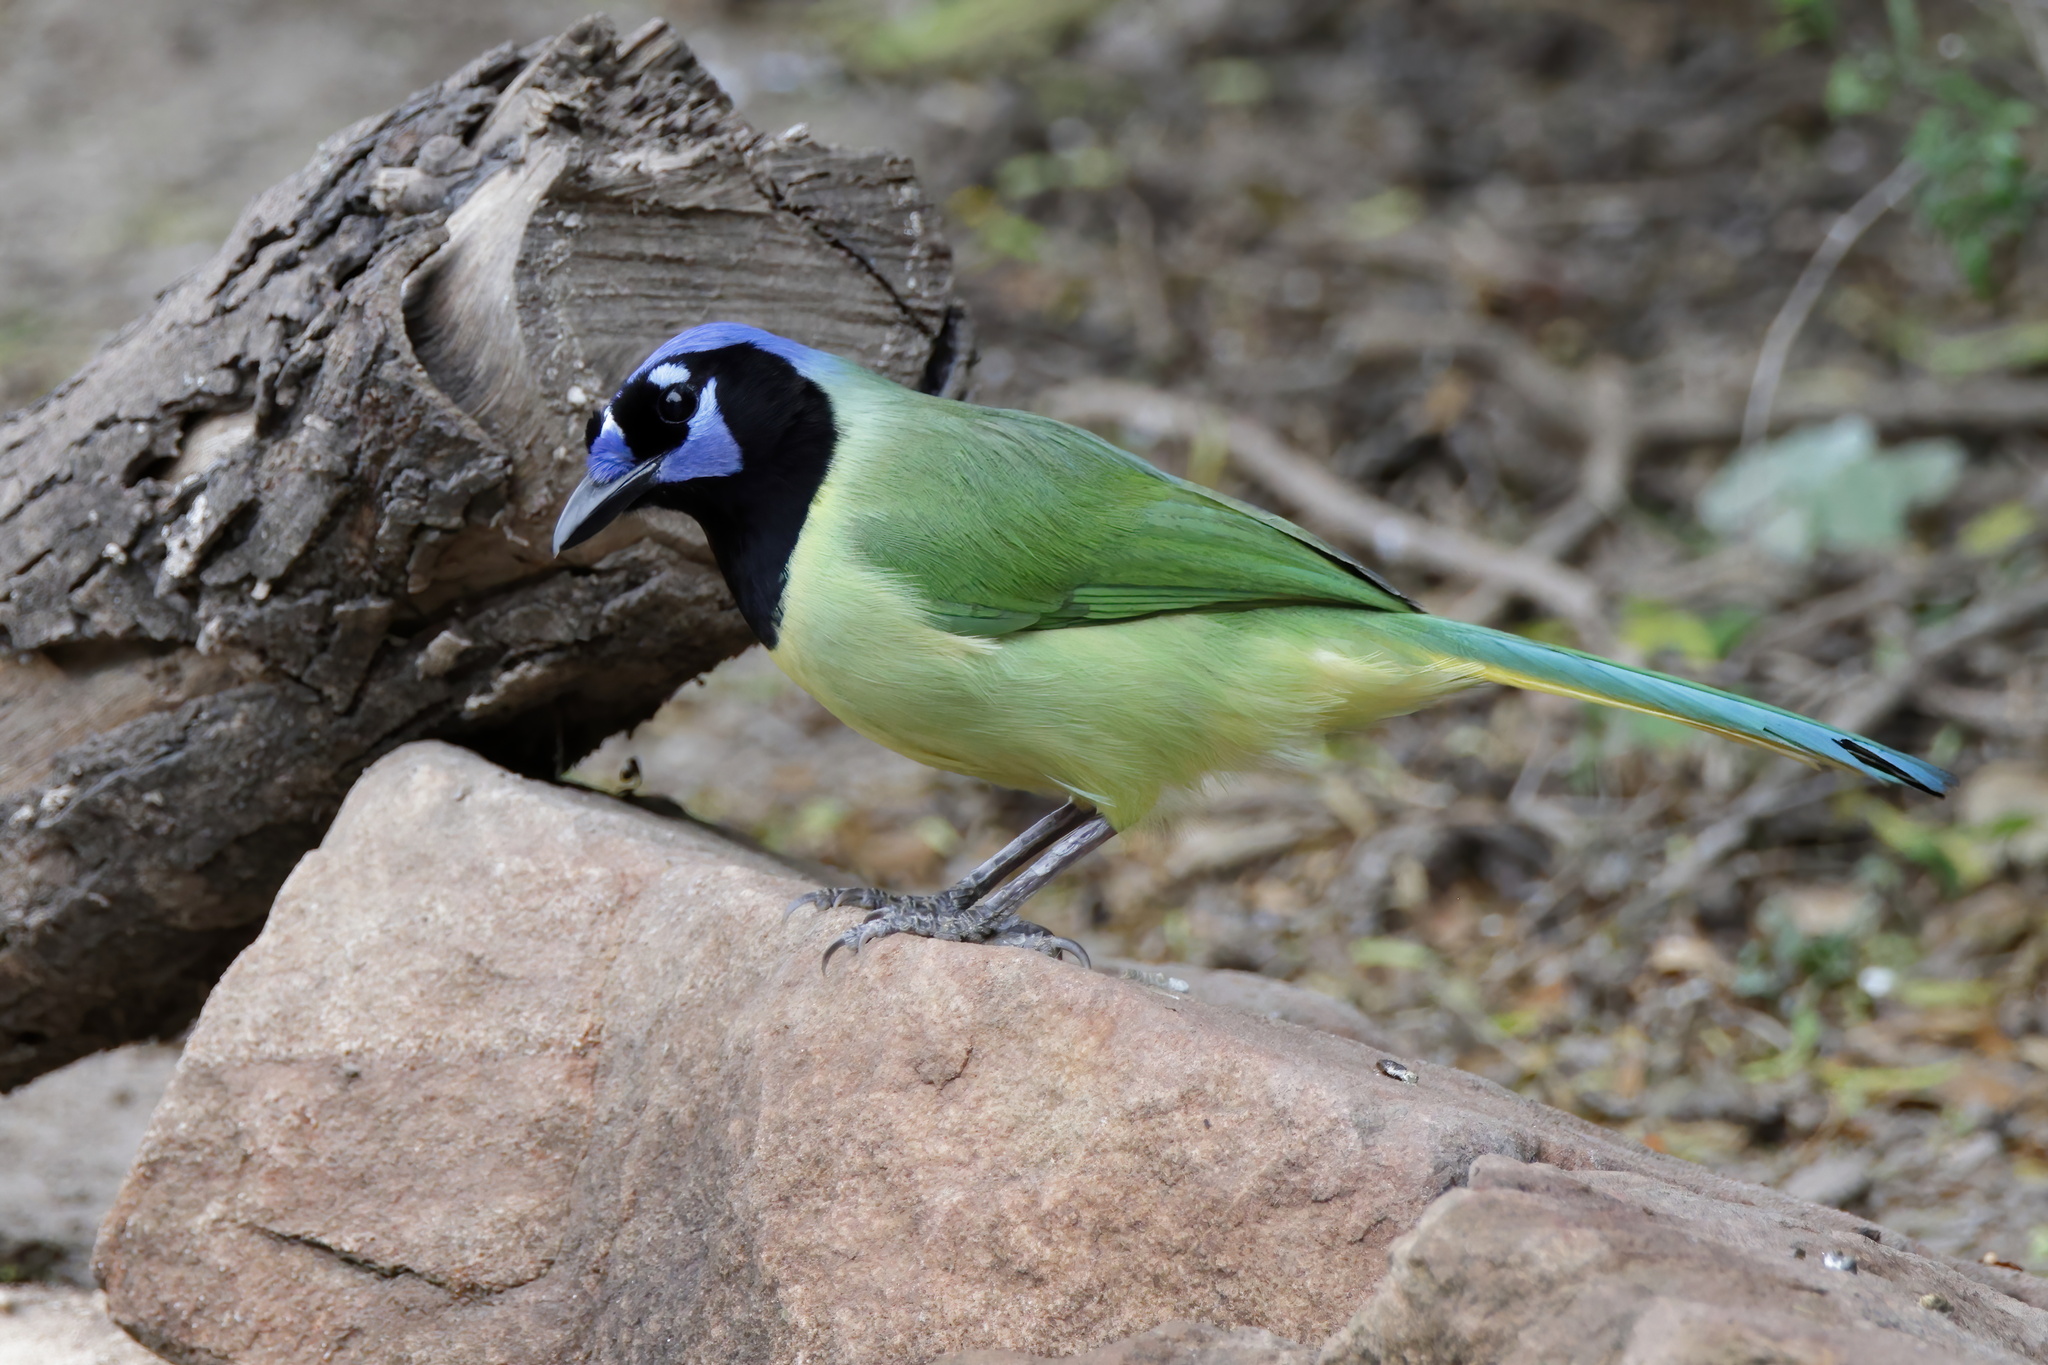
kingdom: Animalia
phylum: Chordata
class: Aves
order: Passeriformes
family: Corvidae
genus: Cyanocorax
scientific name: Cyanocorax yncas
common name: Green jay
